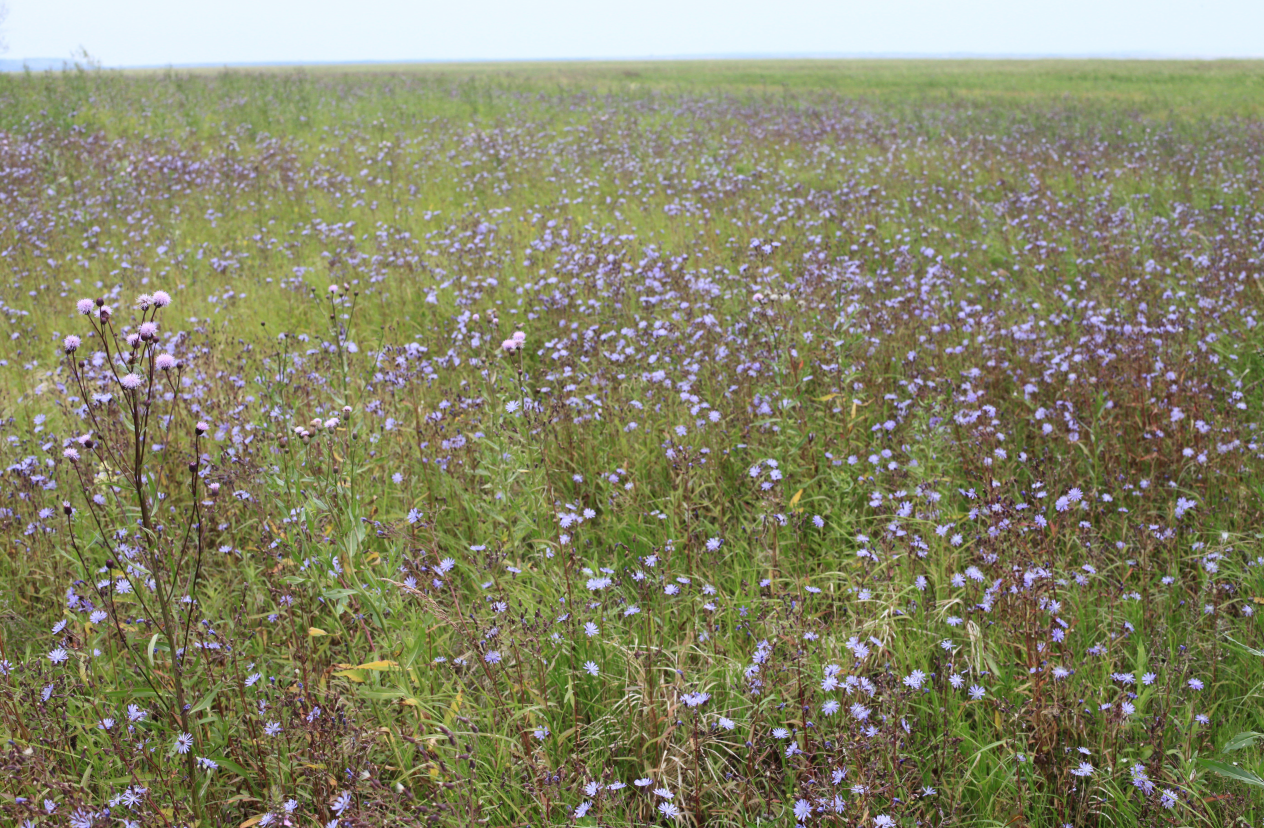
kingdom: Plantae
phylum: Tracheophyta
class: Magnoliopsida
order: Asterales
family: Asteraceae
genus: Lactuca
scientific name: Lactuca sibirica
